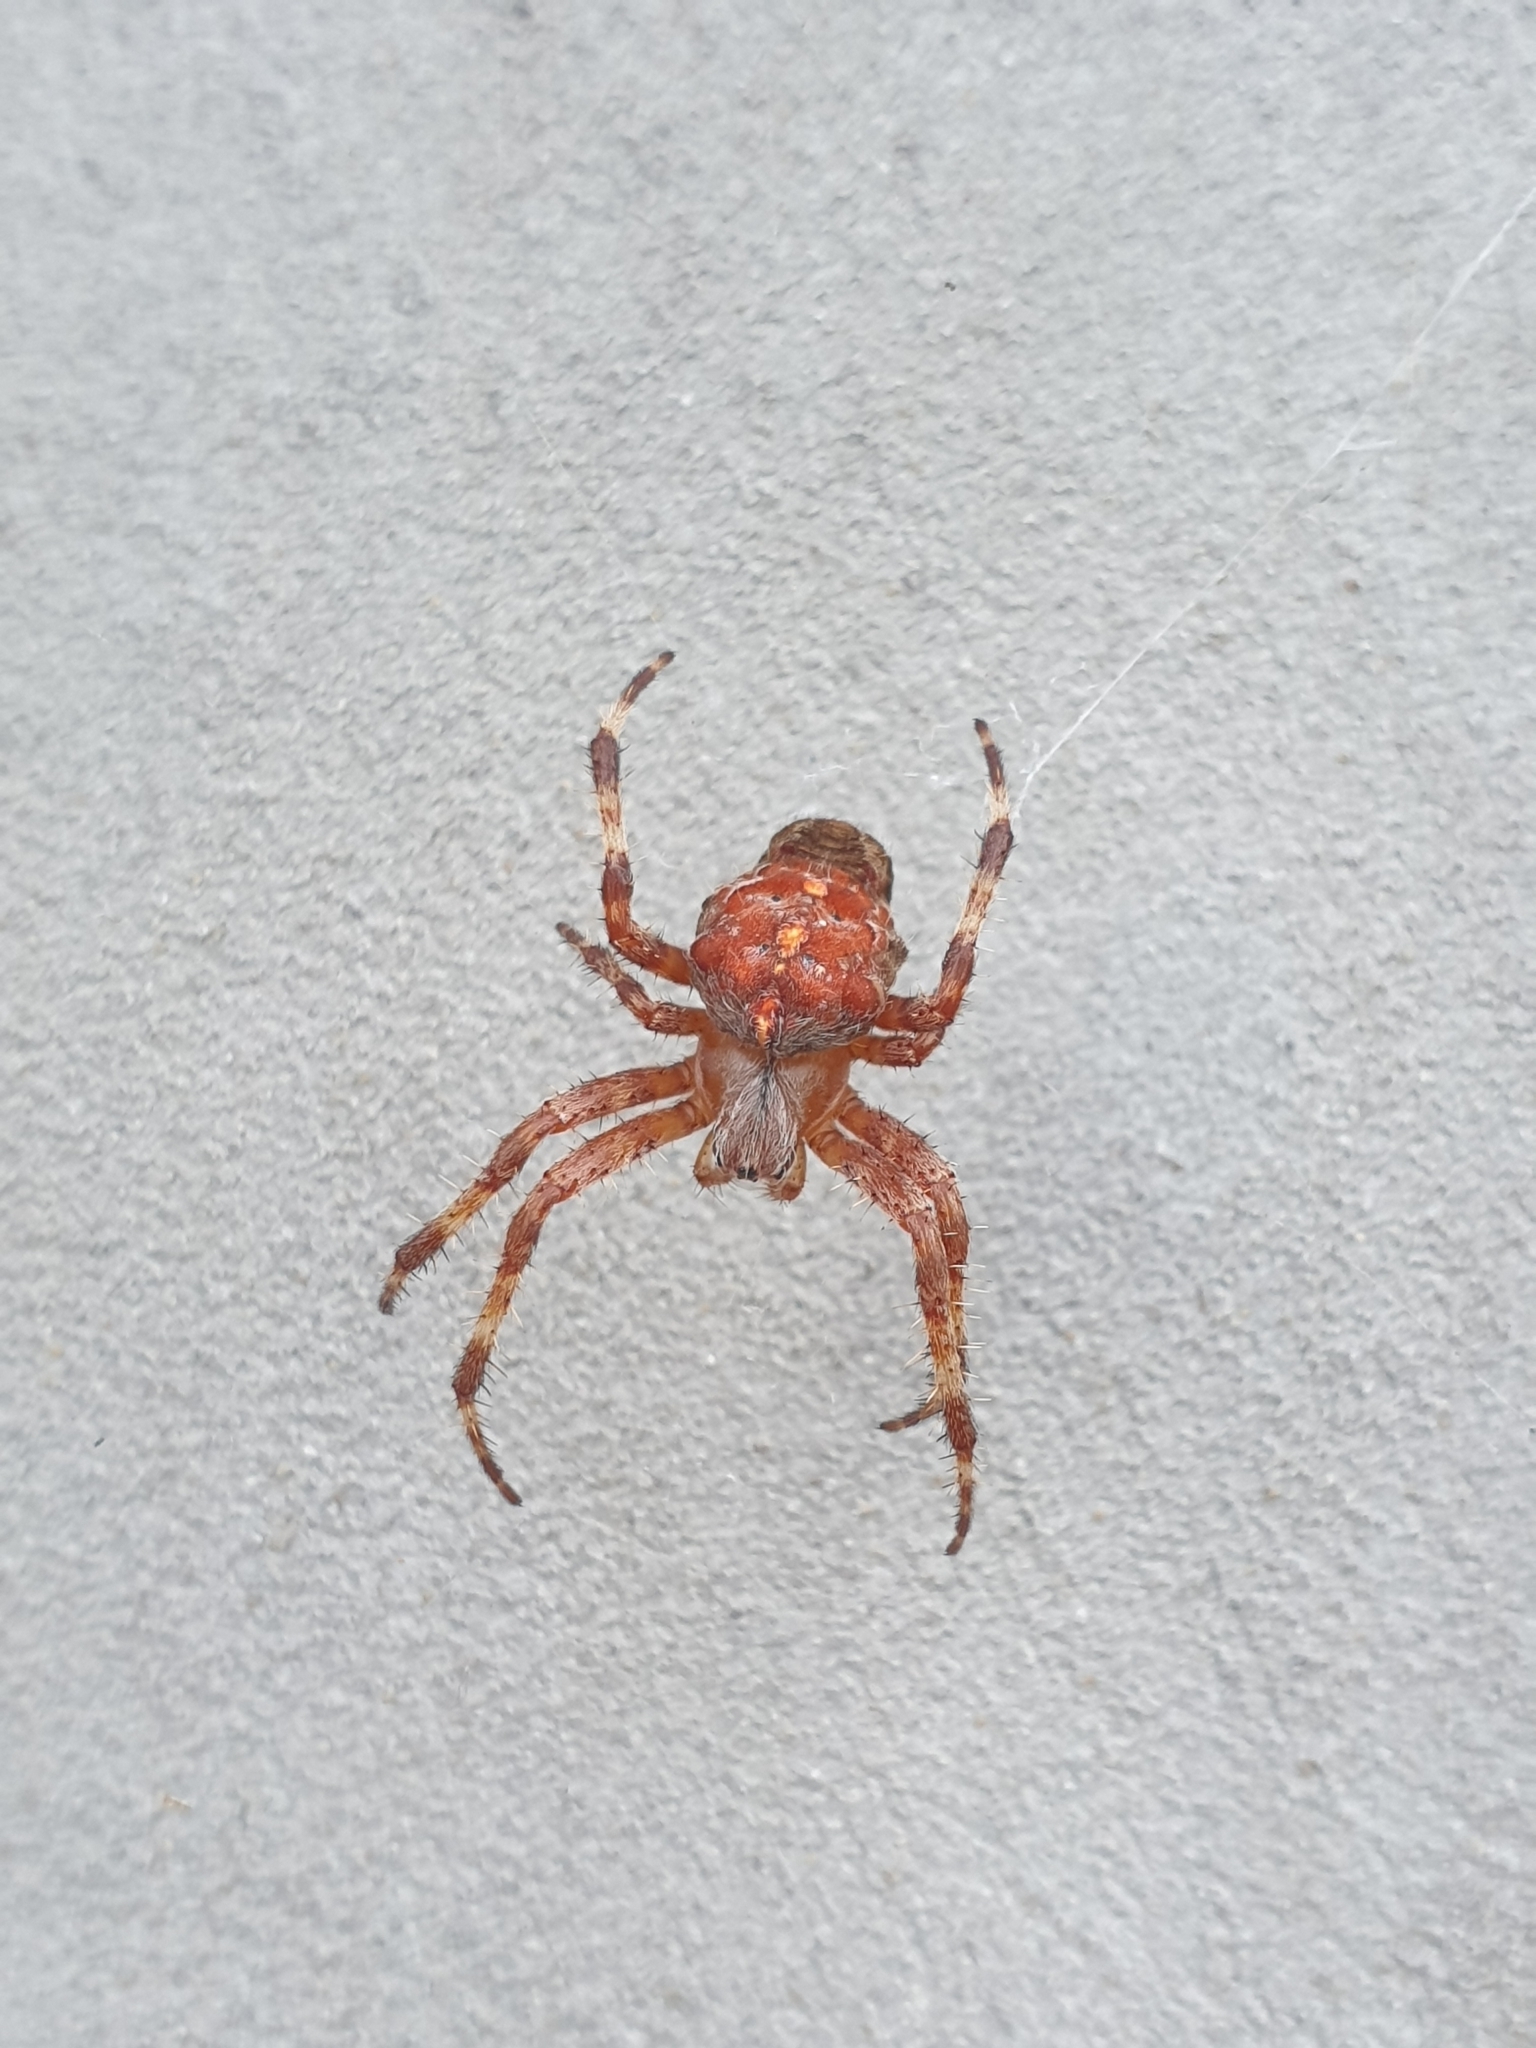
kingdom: Animalia
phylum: Arthropoda
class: Arachnida
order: Araneae
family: Araneidae
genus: Araneus
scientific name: Araneus diadematus
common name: Cross orbweaver
